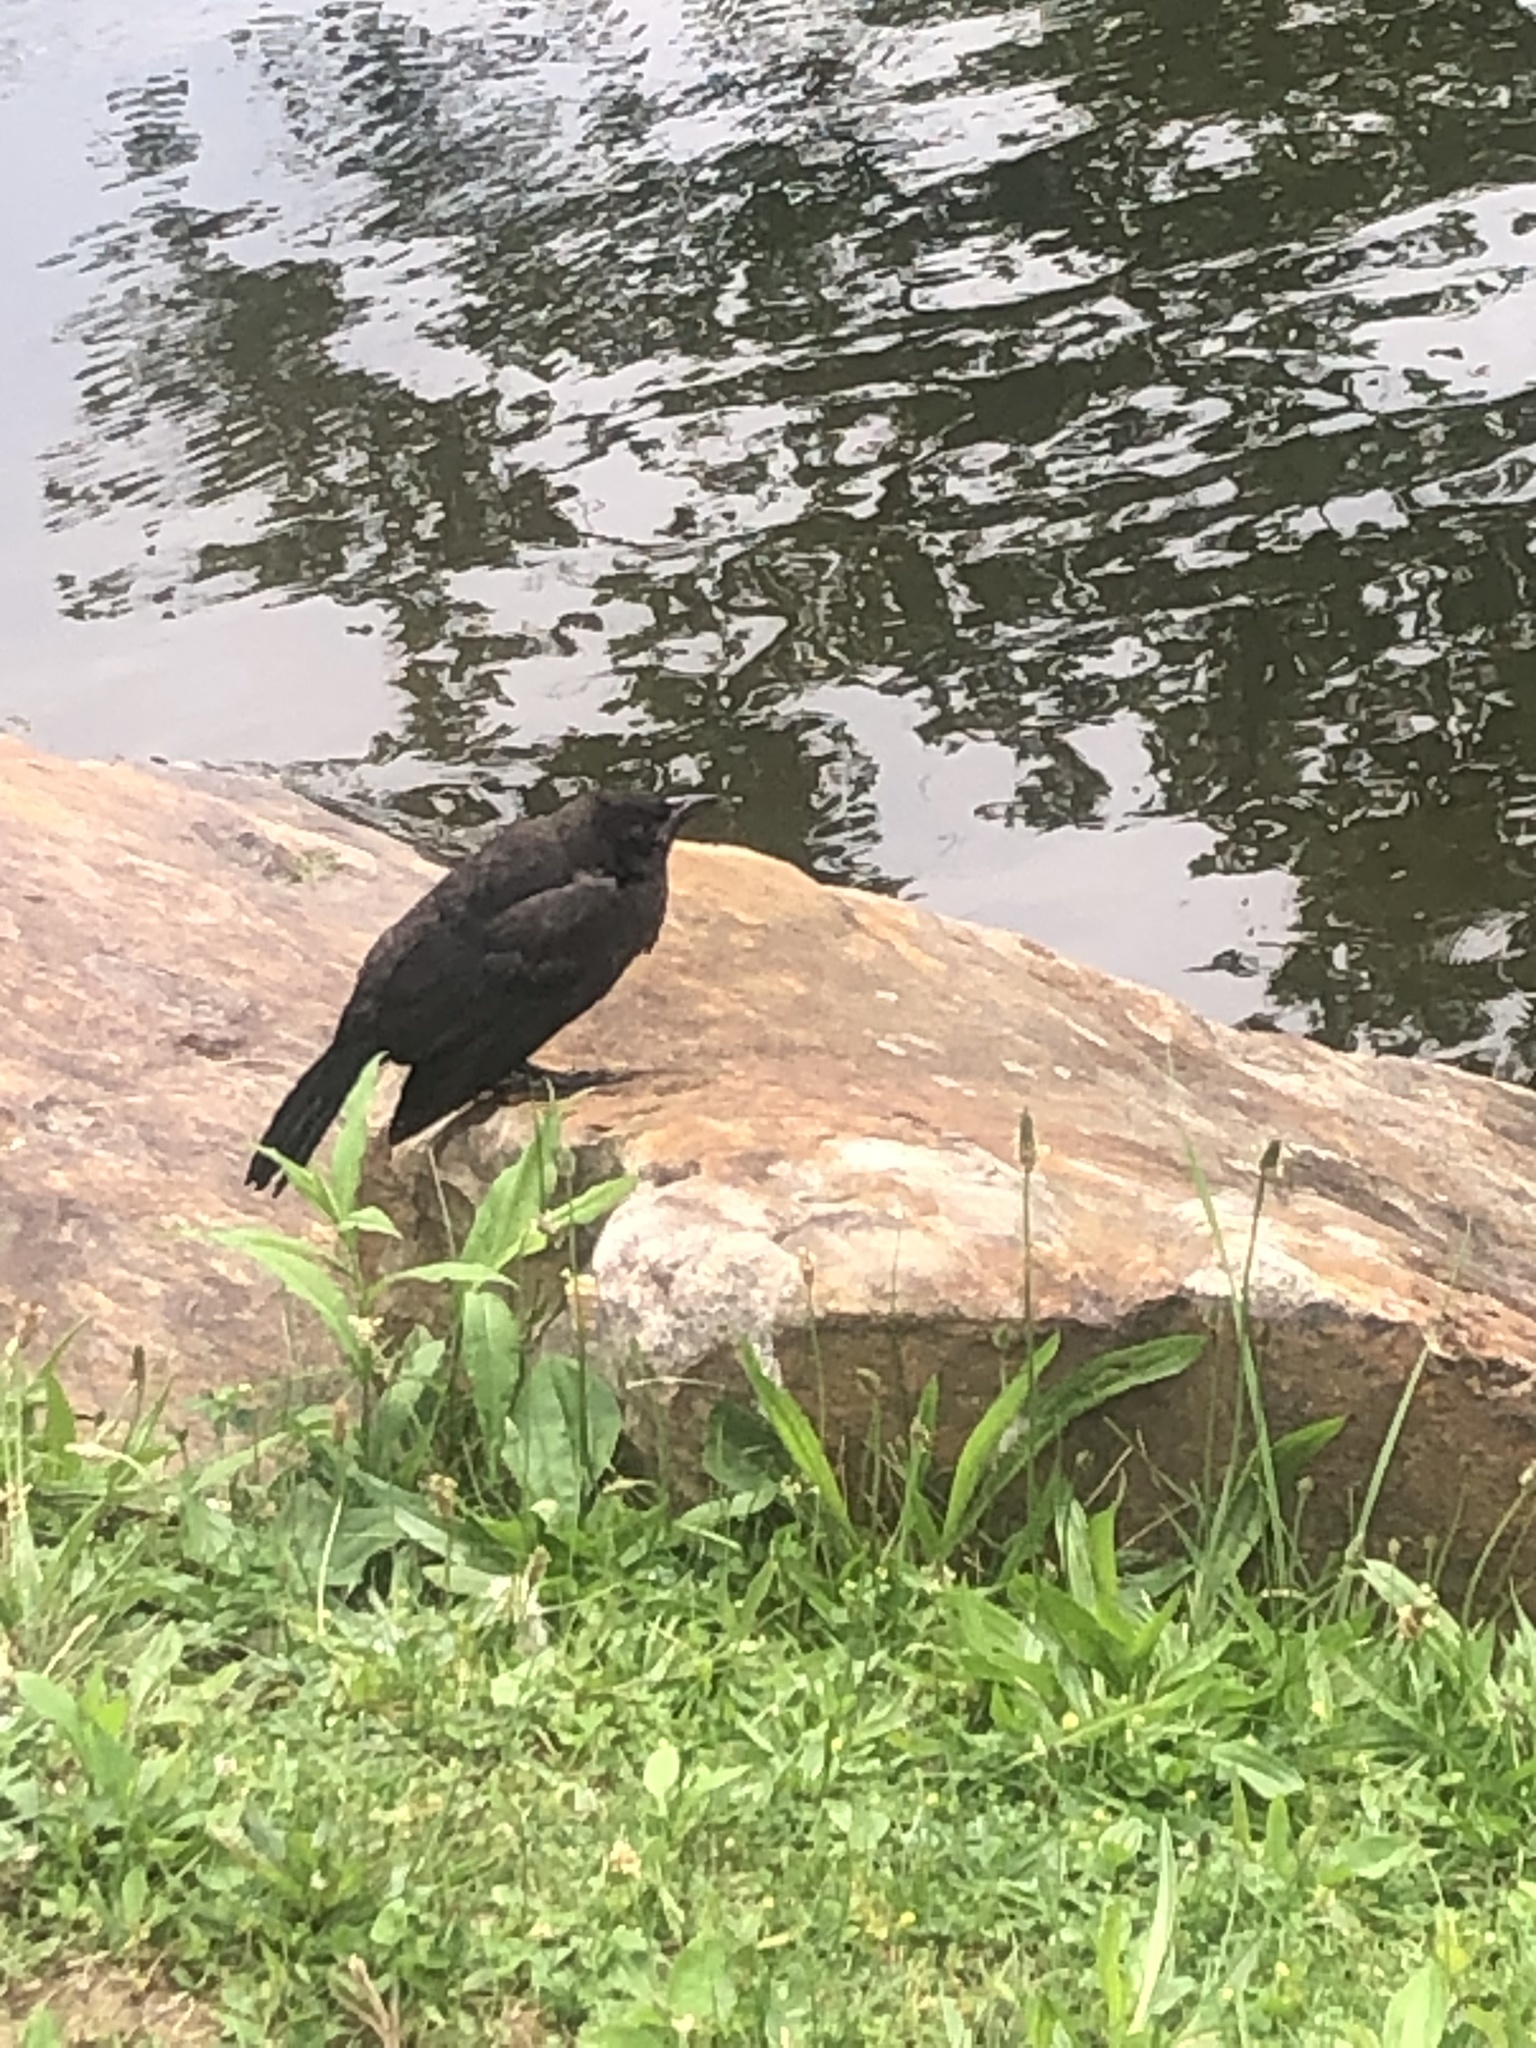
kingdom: Animalia
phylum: Chordata
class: Aves
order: Passeriformes
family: Icteridae
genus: Quiscalus
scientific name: Quiscalus quiscula
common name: Common grackle
